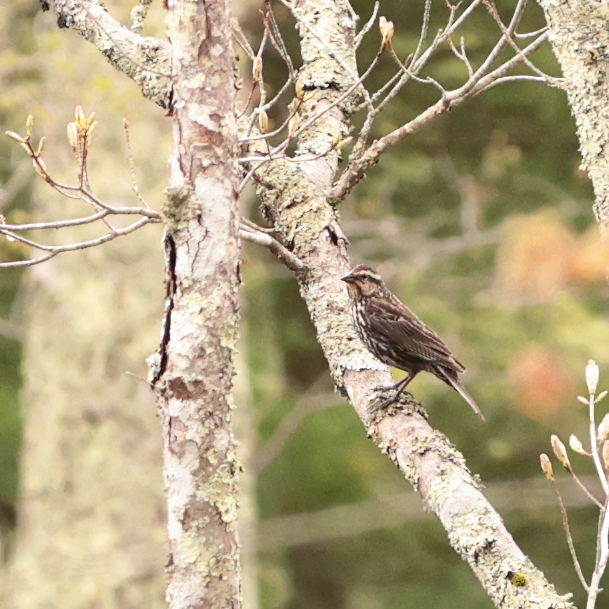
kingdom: Animalia
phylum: Chordata
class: Aves
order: Passeriformes
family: Icteridae
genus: Agelaius
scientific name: Agelaius phoeniceus
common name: Red-winged blackbird
